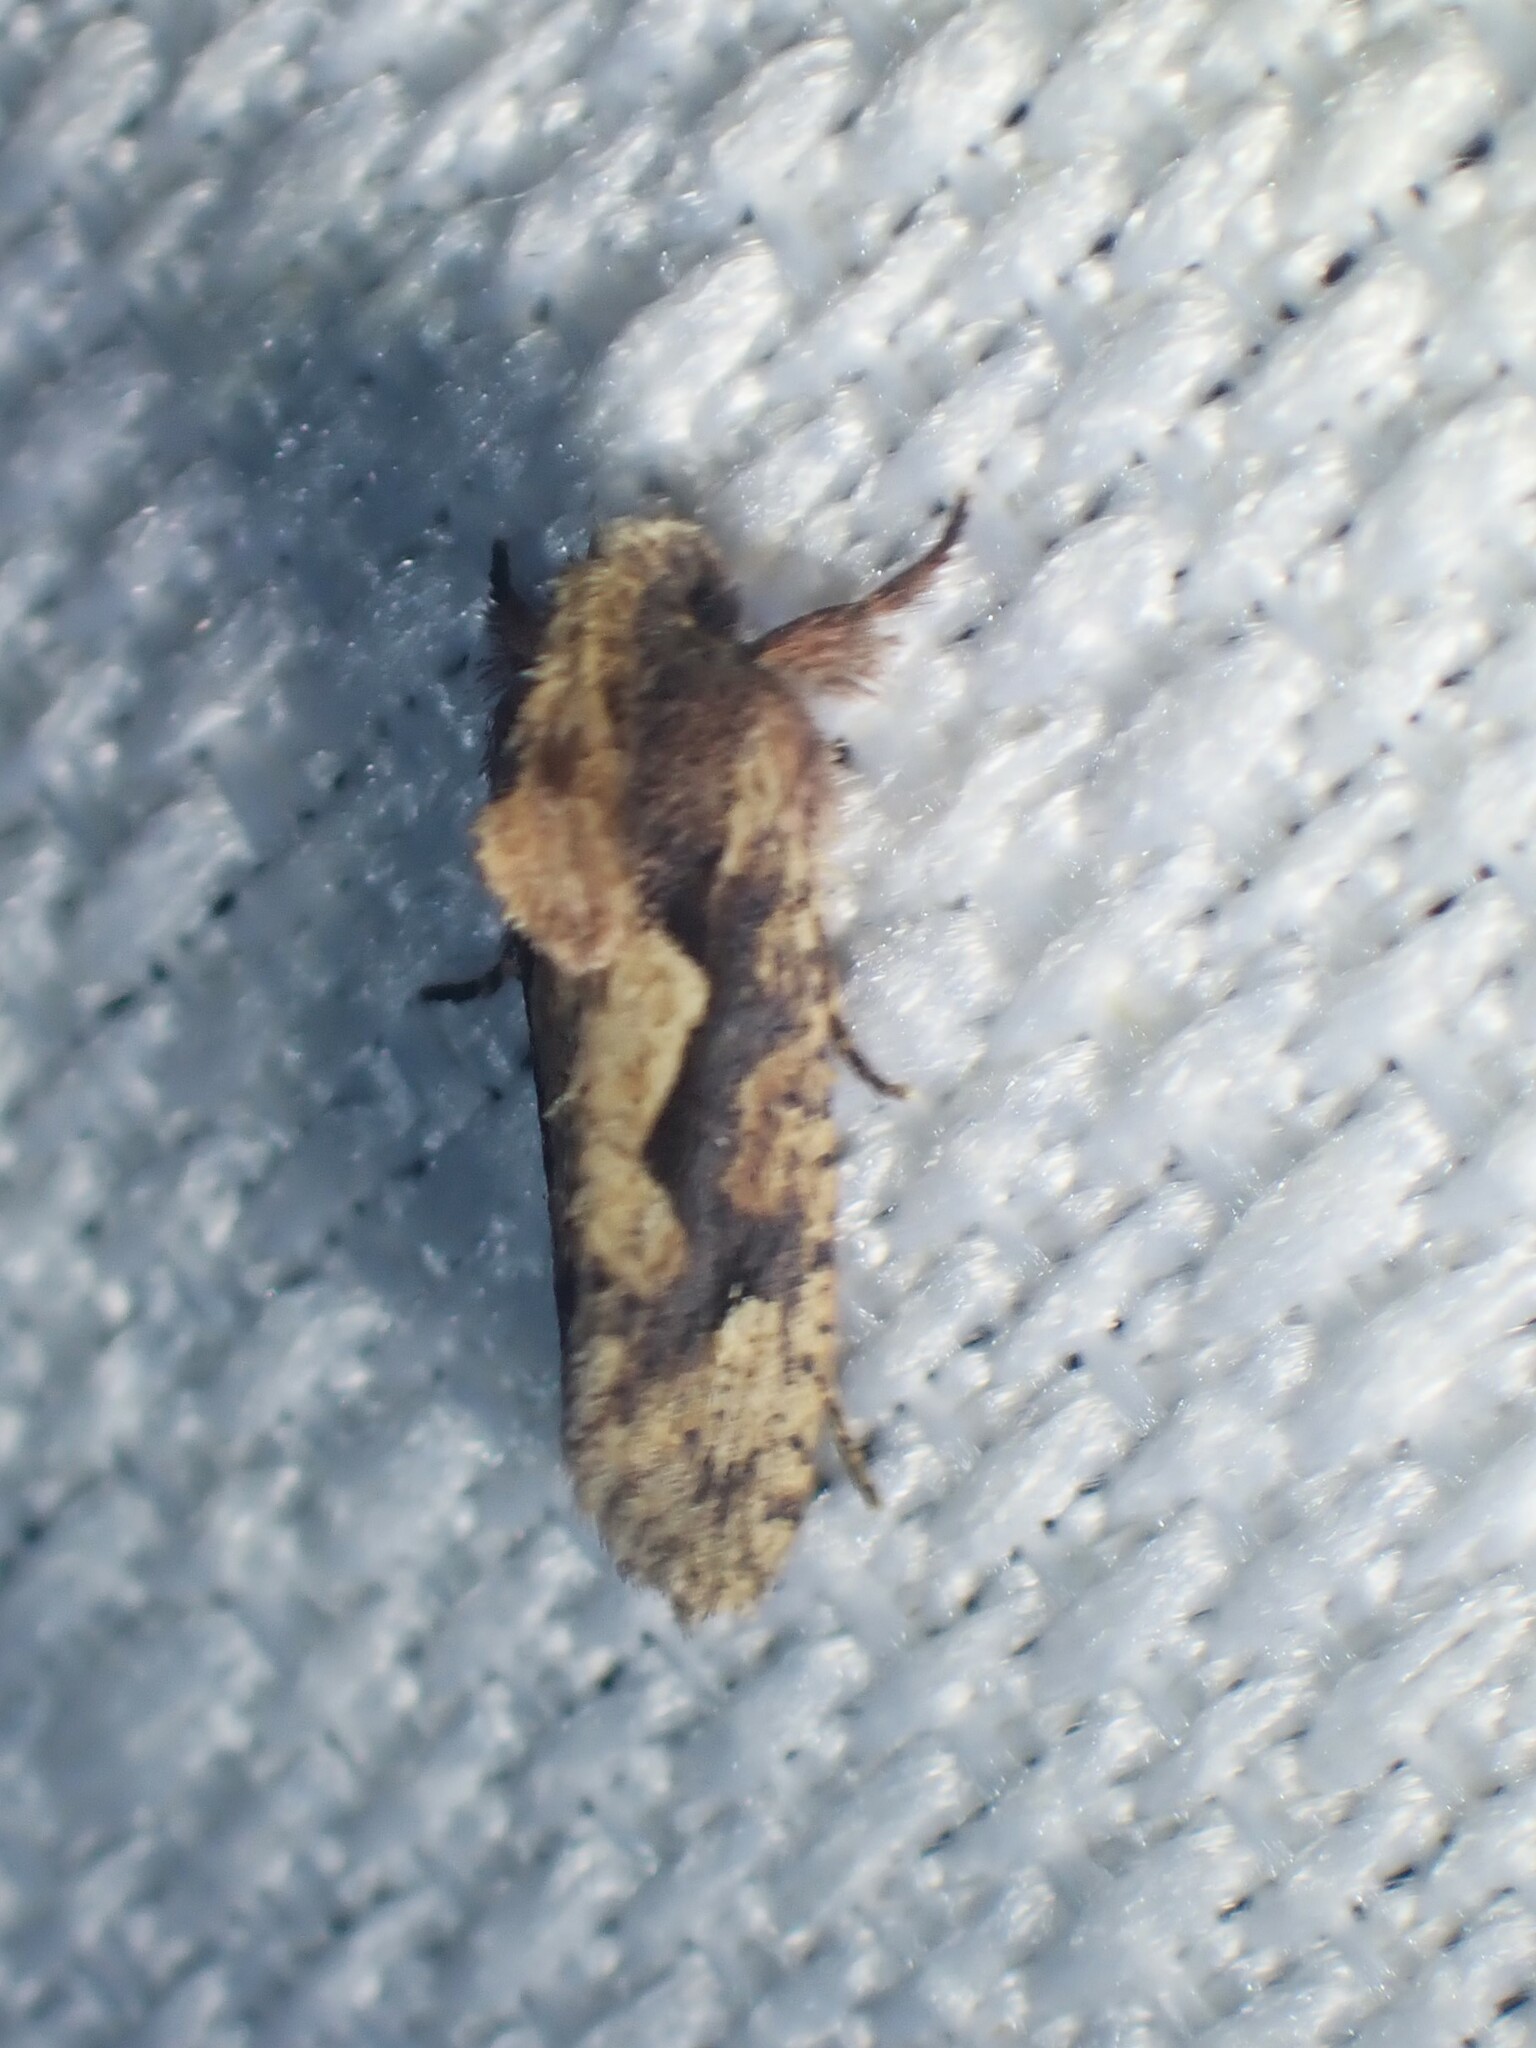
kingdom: Animalia
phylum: Arthropoda
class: Insecta
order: Lepidoptera
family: Tineidae
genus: Acrolophus
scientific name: Acrolophus walsinghami
